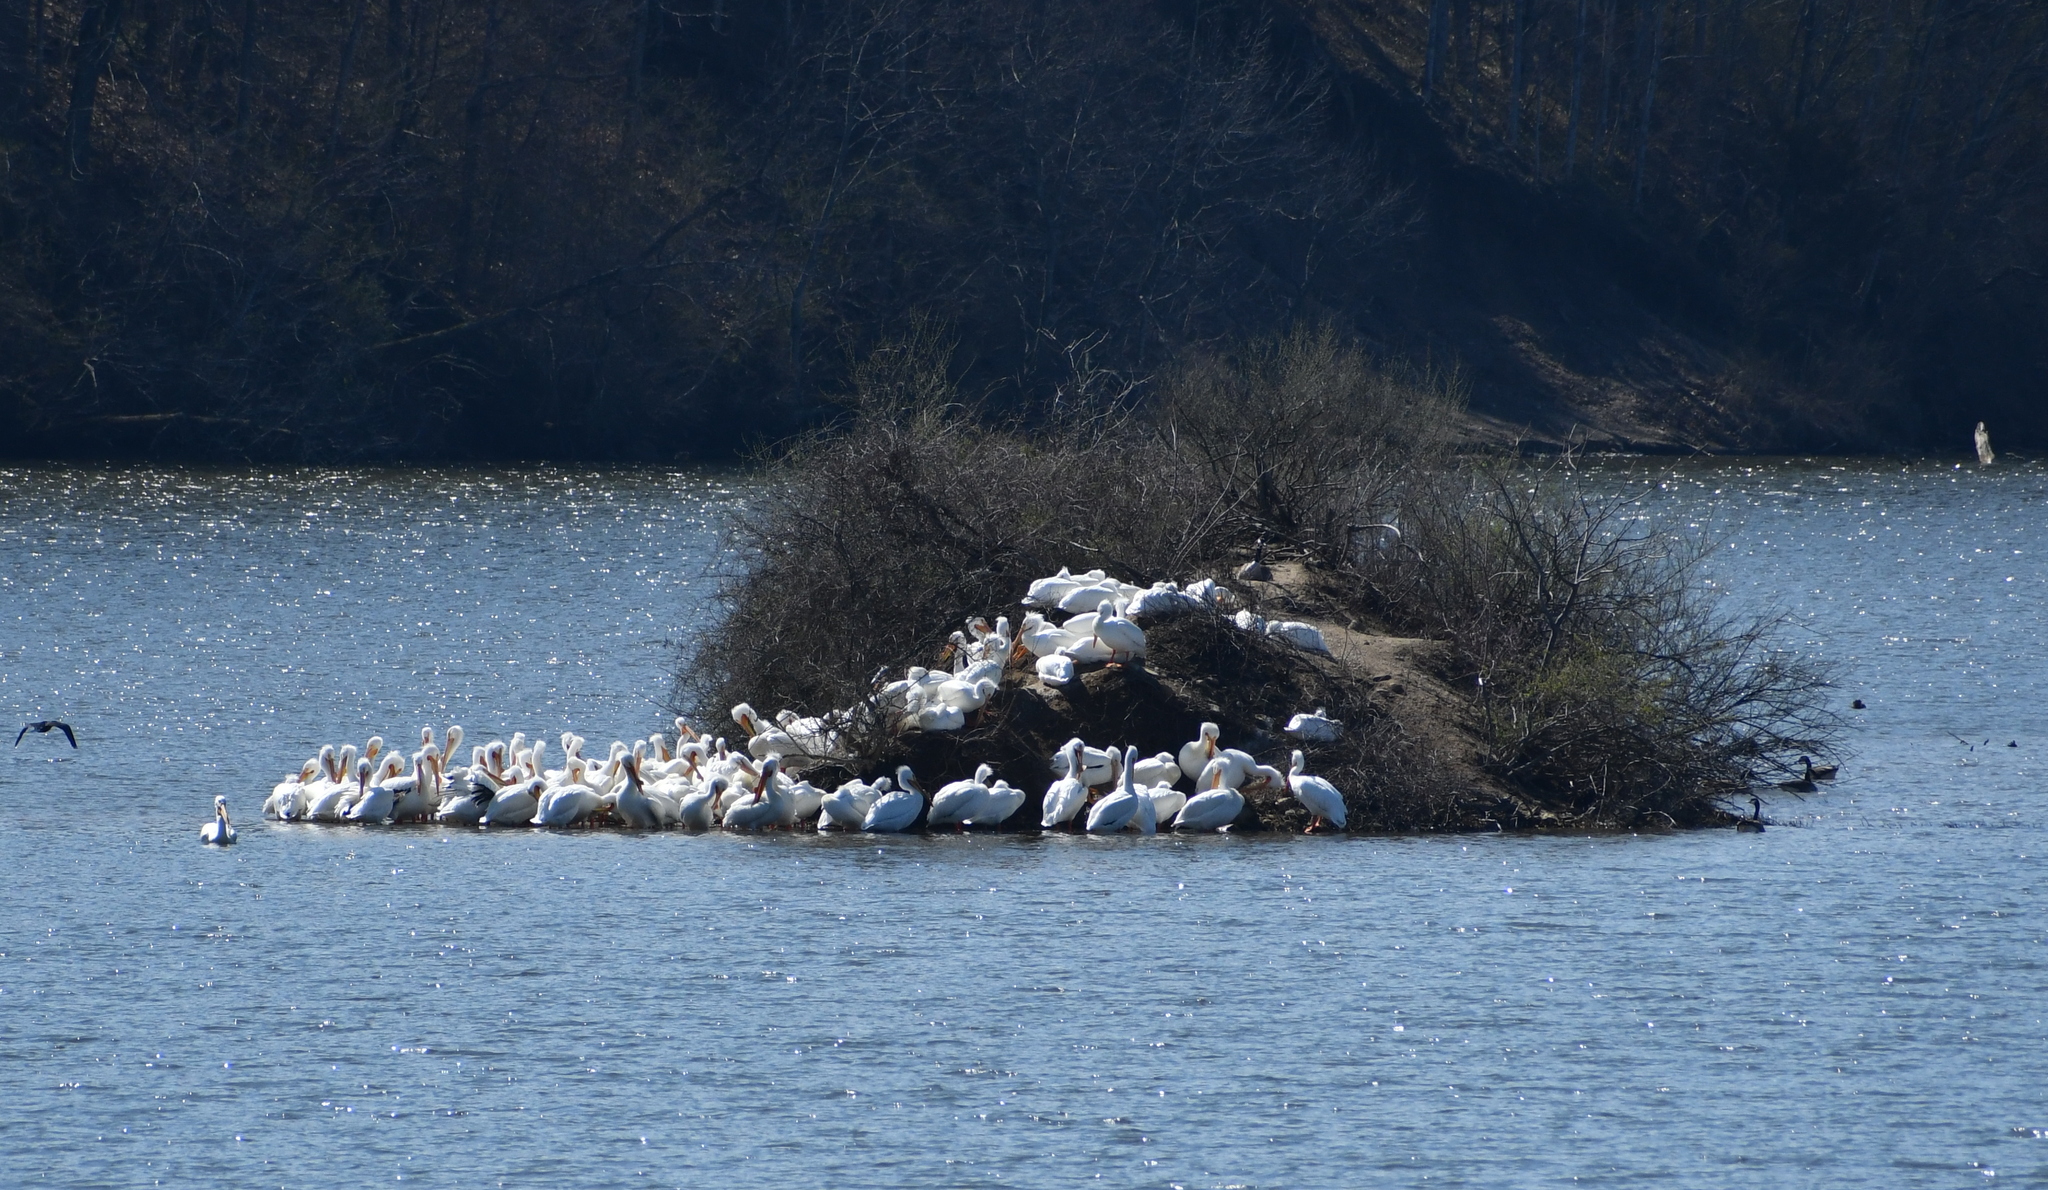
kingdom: Animalia
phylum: Chordata
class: Aves
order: Pelecaniformes
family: Pelecanidae
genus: Pelecanus
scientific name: Pelecanus erythrorhynchos
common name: American white pelican
